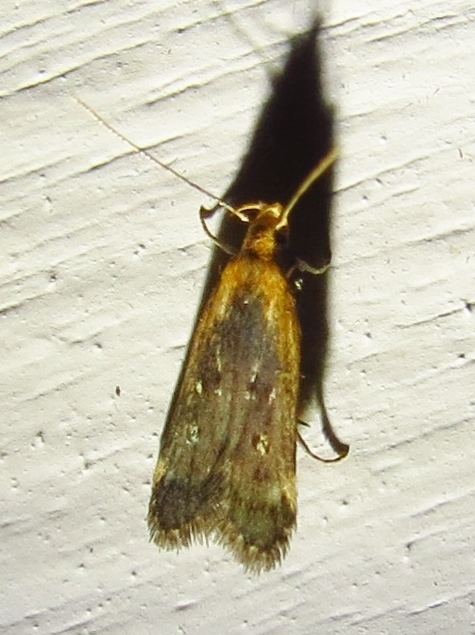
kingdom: Animalia
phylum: Arthropoda
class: Insecta
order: Lepidoptera
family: Gelechiidae
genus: Dichomeris
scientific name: Dichomeris costarufoella
